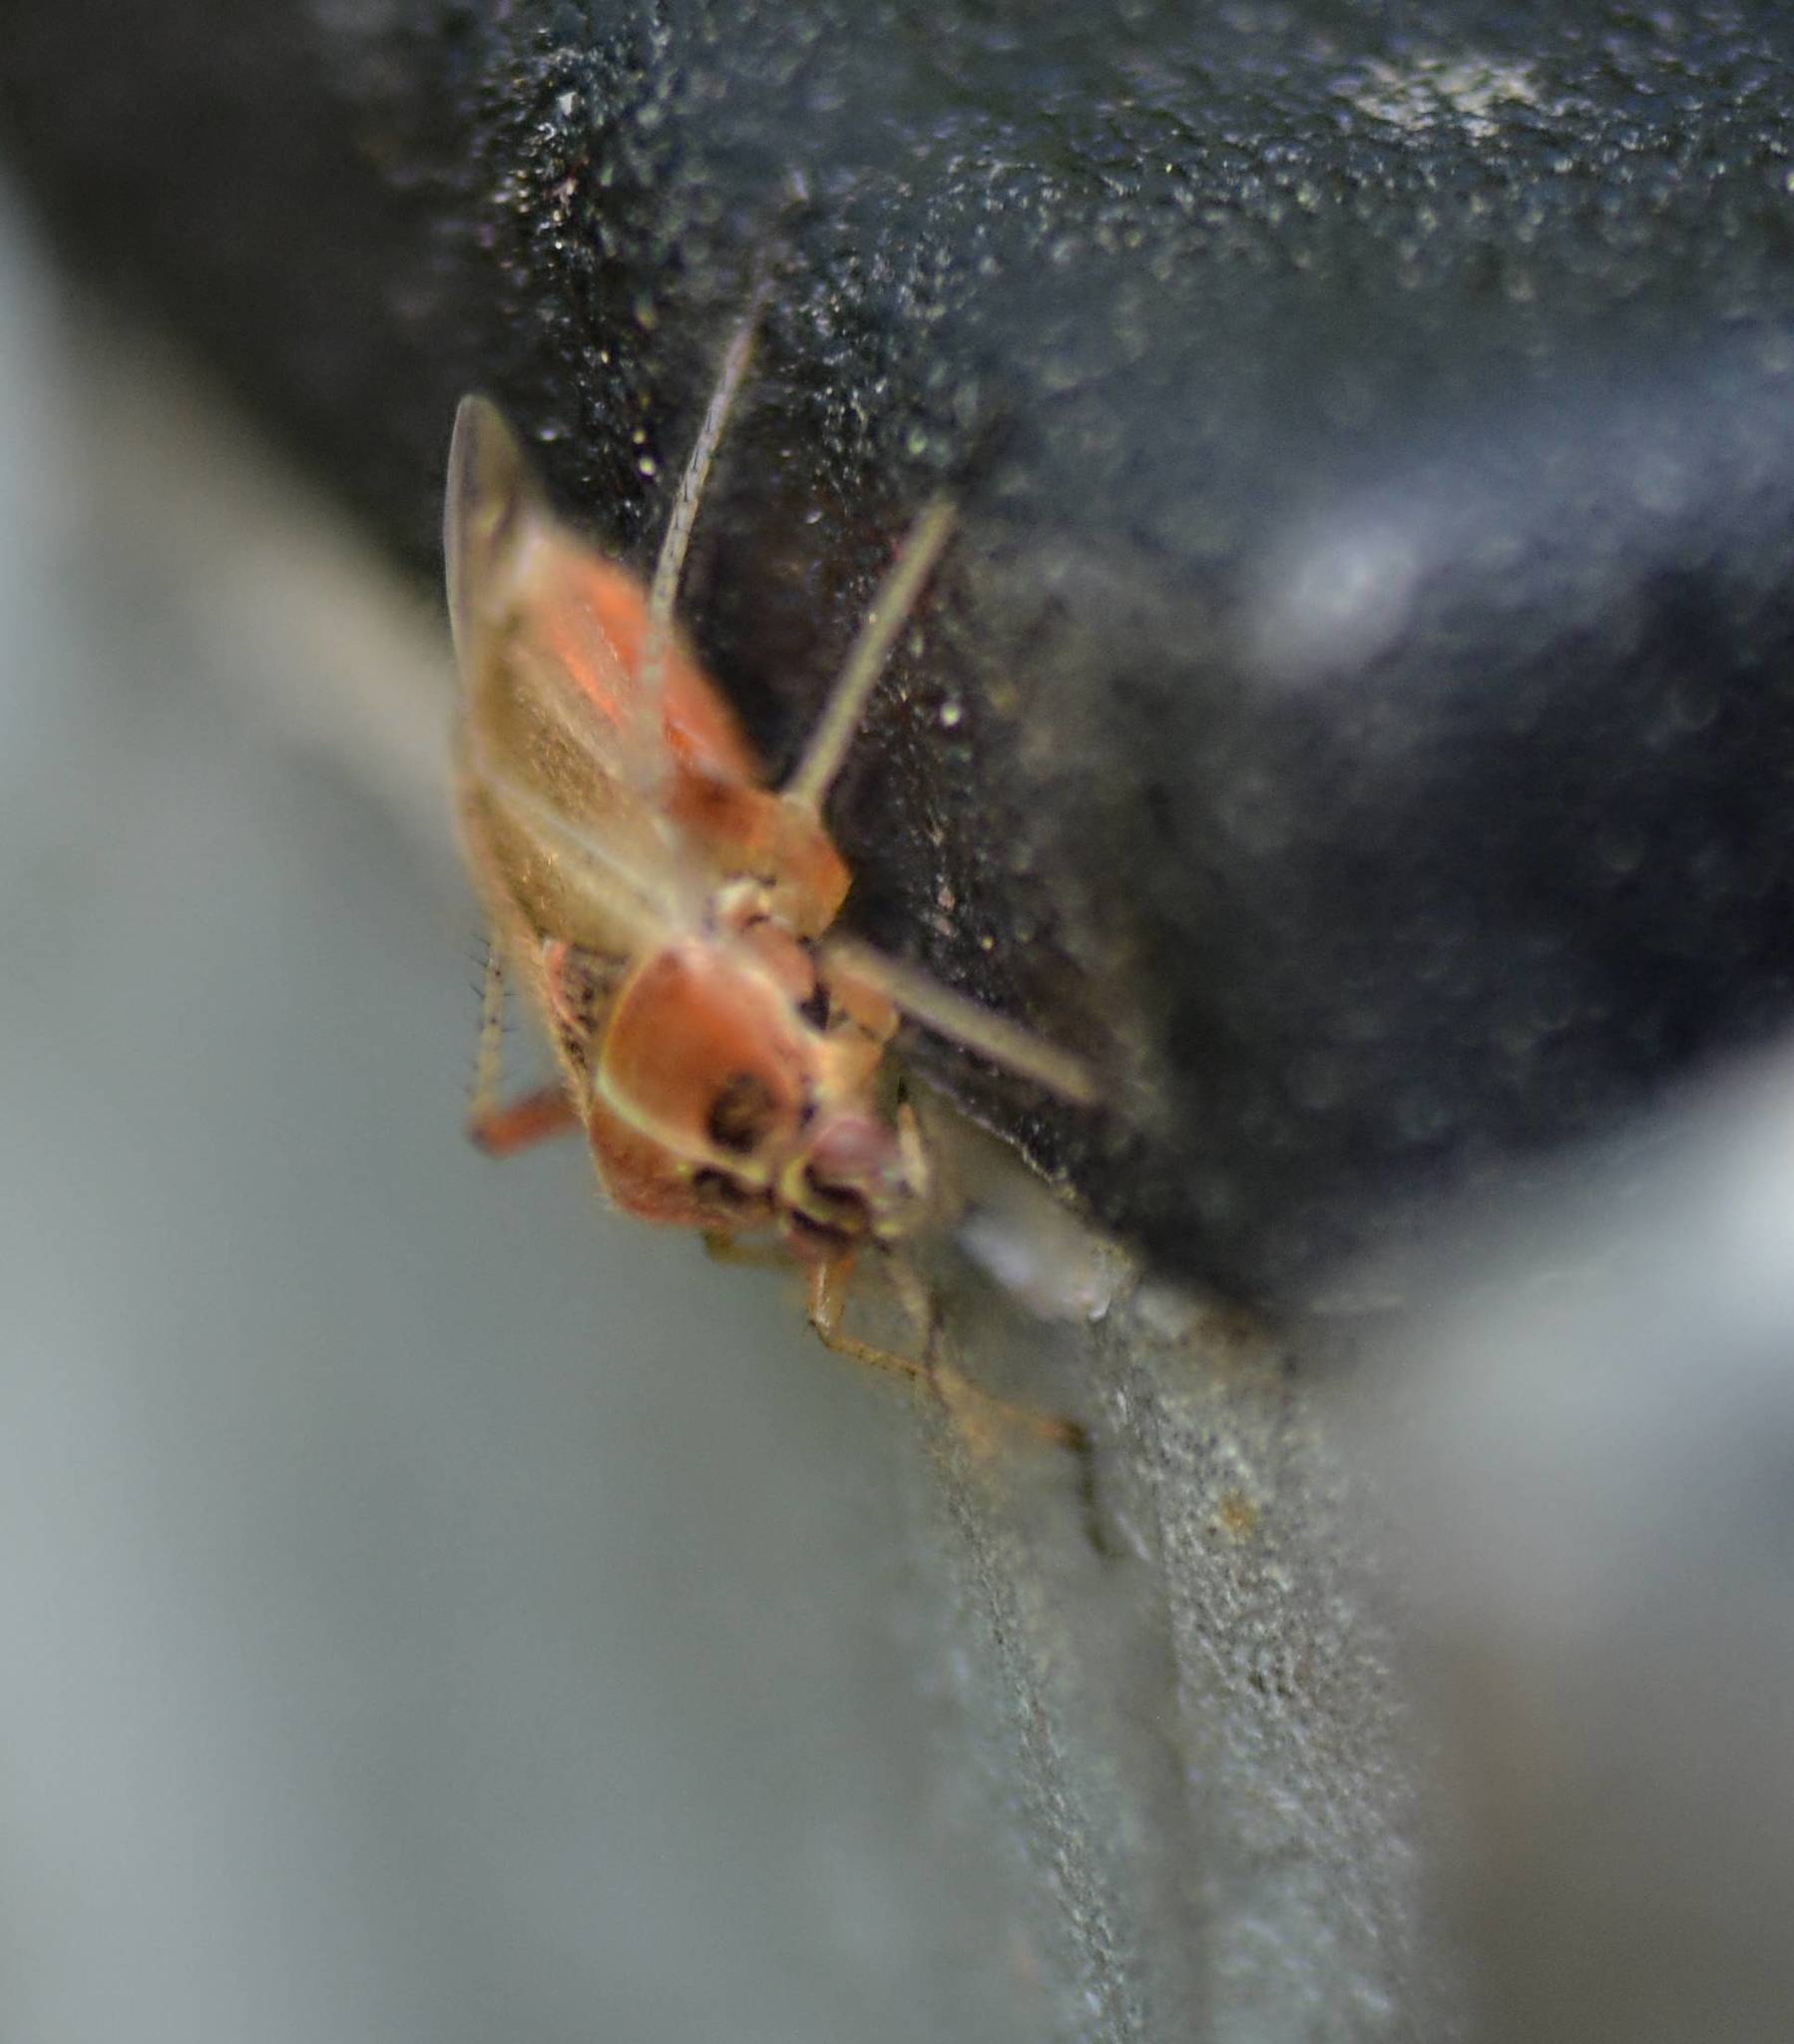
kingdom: Animalia
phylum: Arthropoda
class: Insecta
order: Hemiptera
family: Miridae
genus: Harpocera
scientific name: Harpocera thoracica
